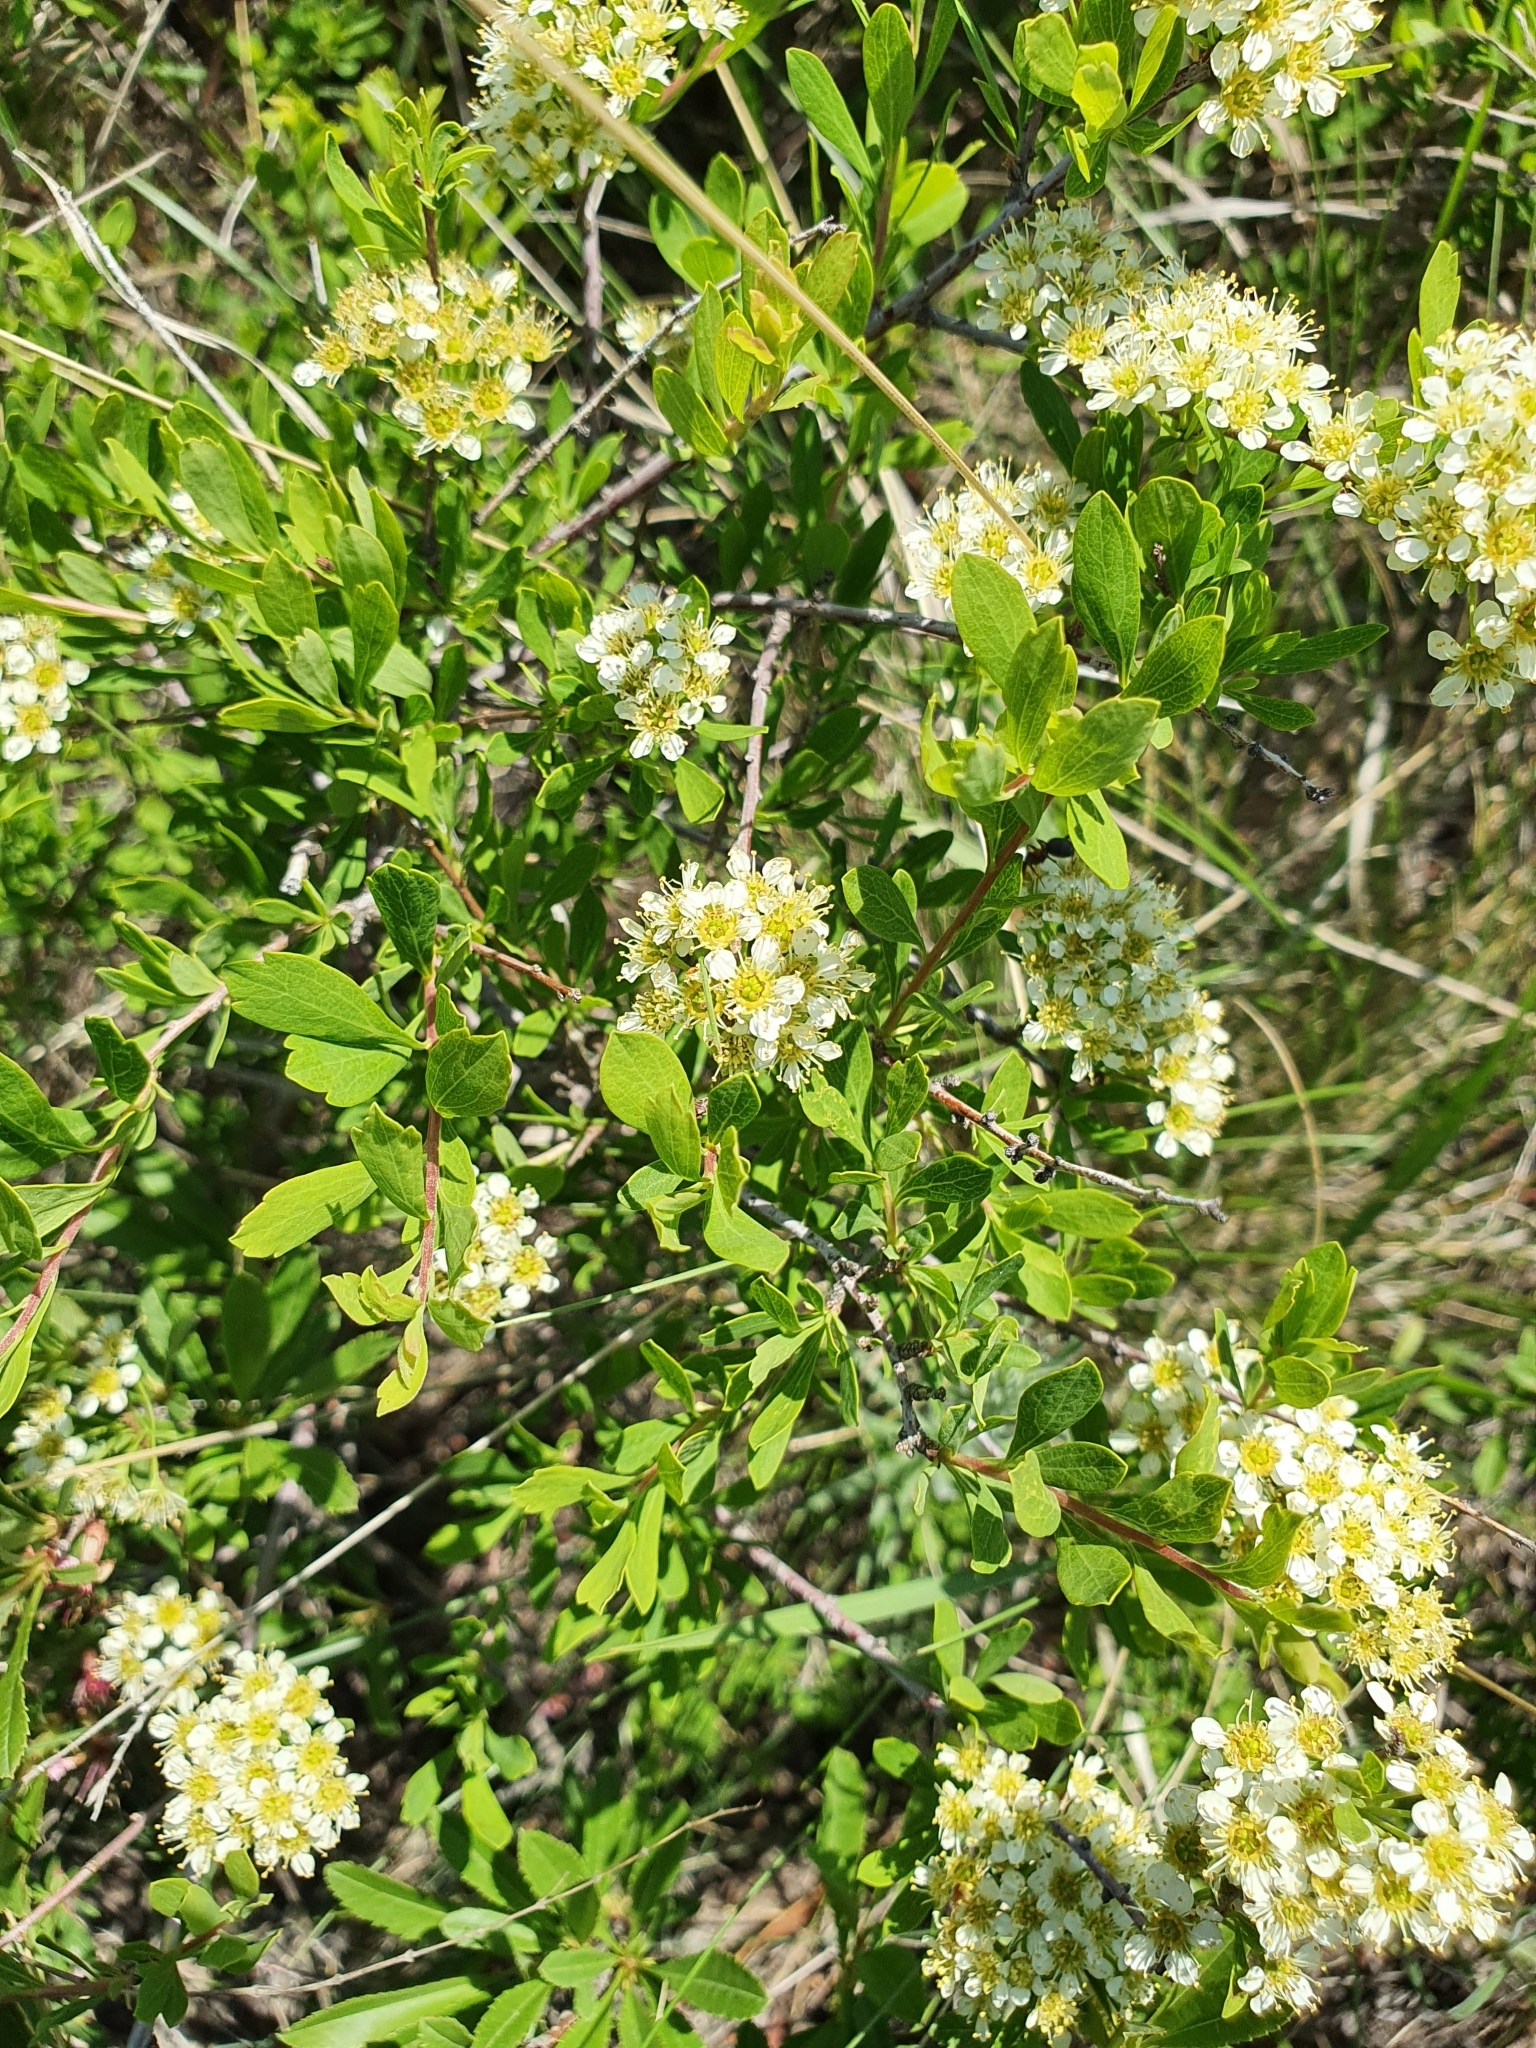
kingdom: Plantae
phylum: Tracheophyta
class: Magnoliopsida
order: Rosales
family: Rosaceae
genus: Spiraea
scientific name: Spiraea crenata
